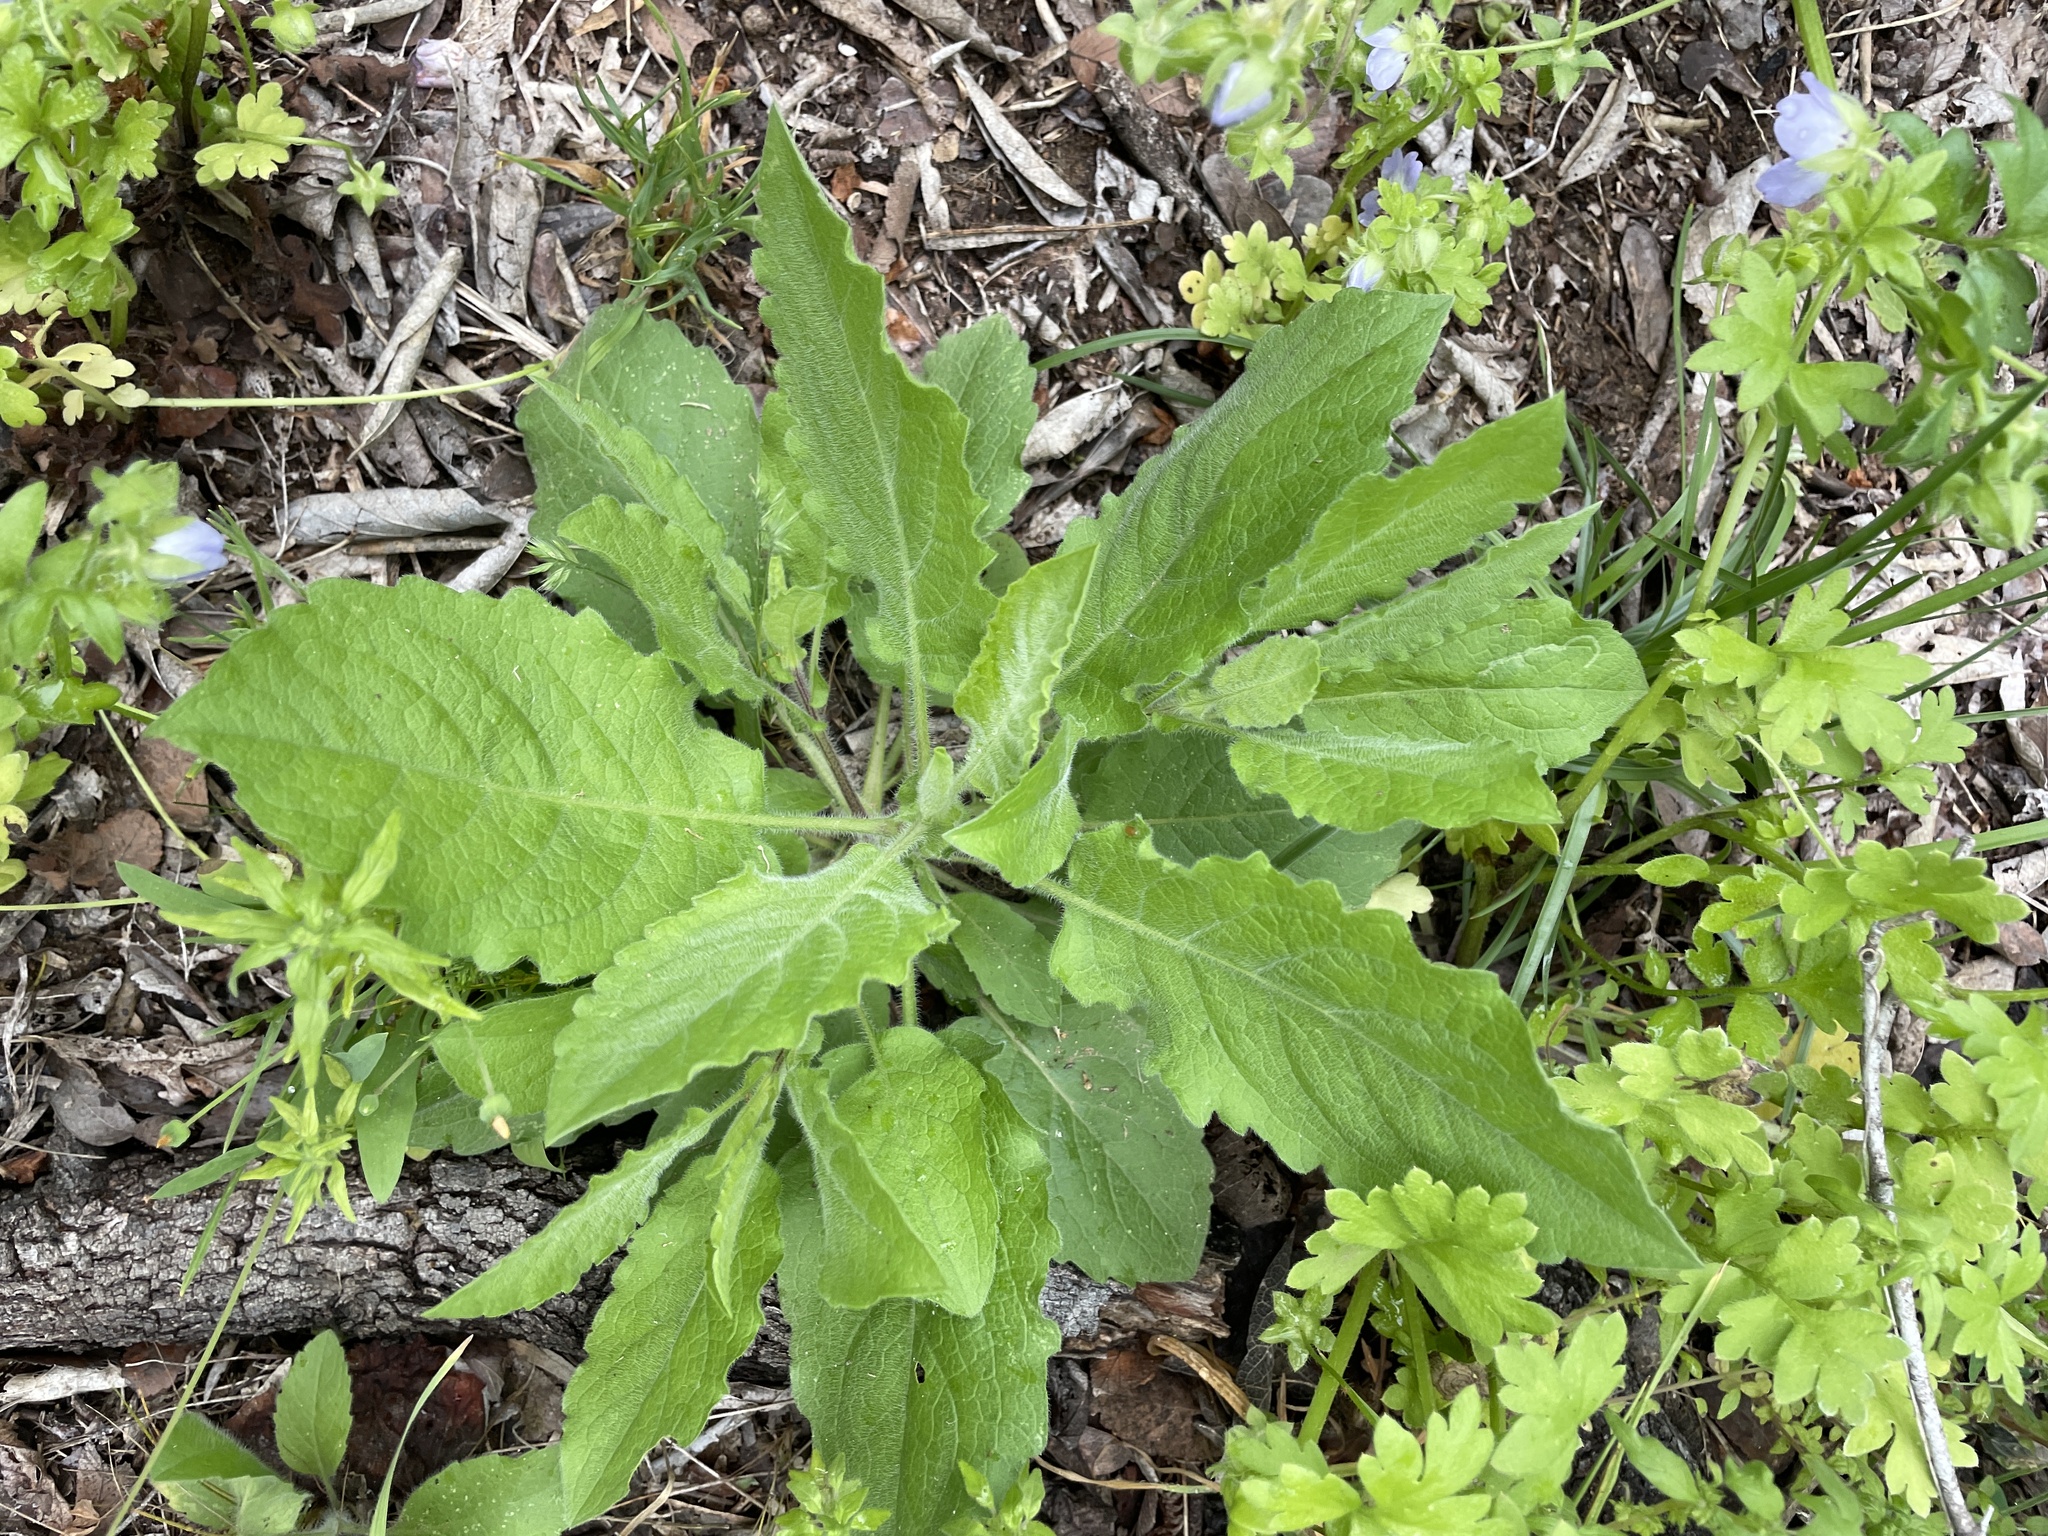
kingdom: Plantae
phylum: Tracheophyta
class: Magnoliopsida
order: Asterales
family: Asteraceae
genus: Heterotheca
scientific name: Heterotheca subaxillaris
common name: Camphorweed
